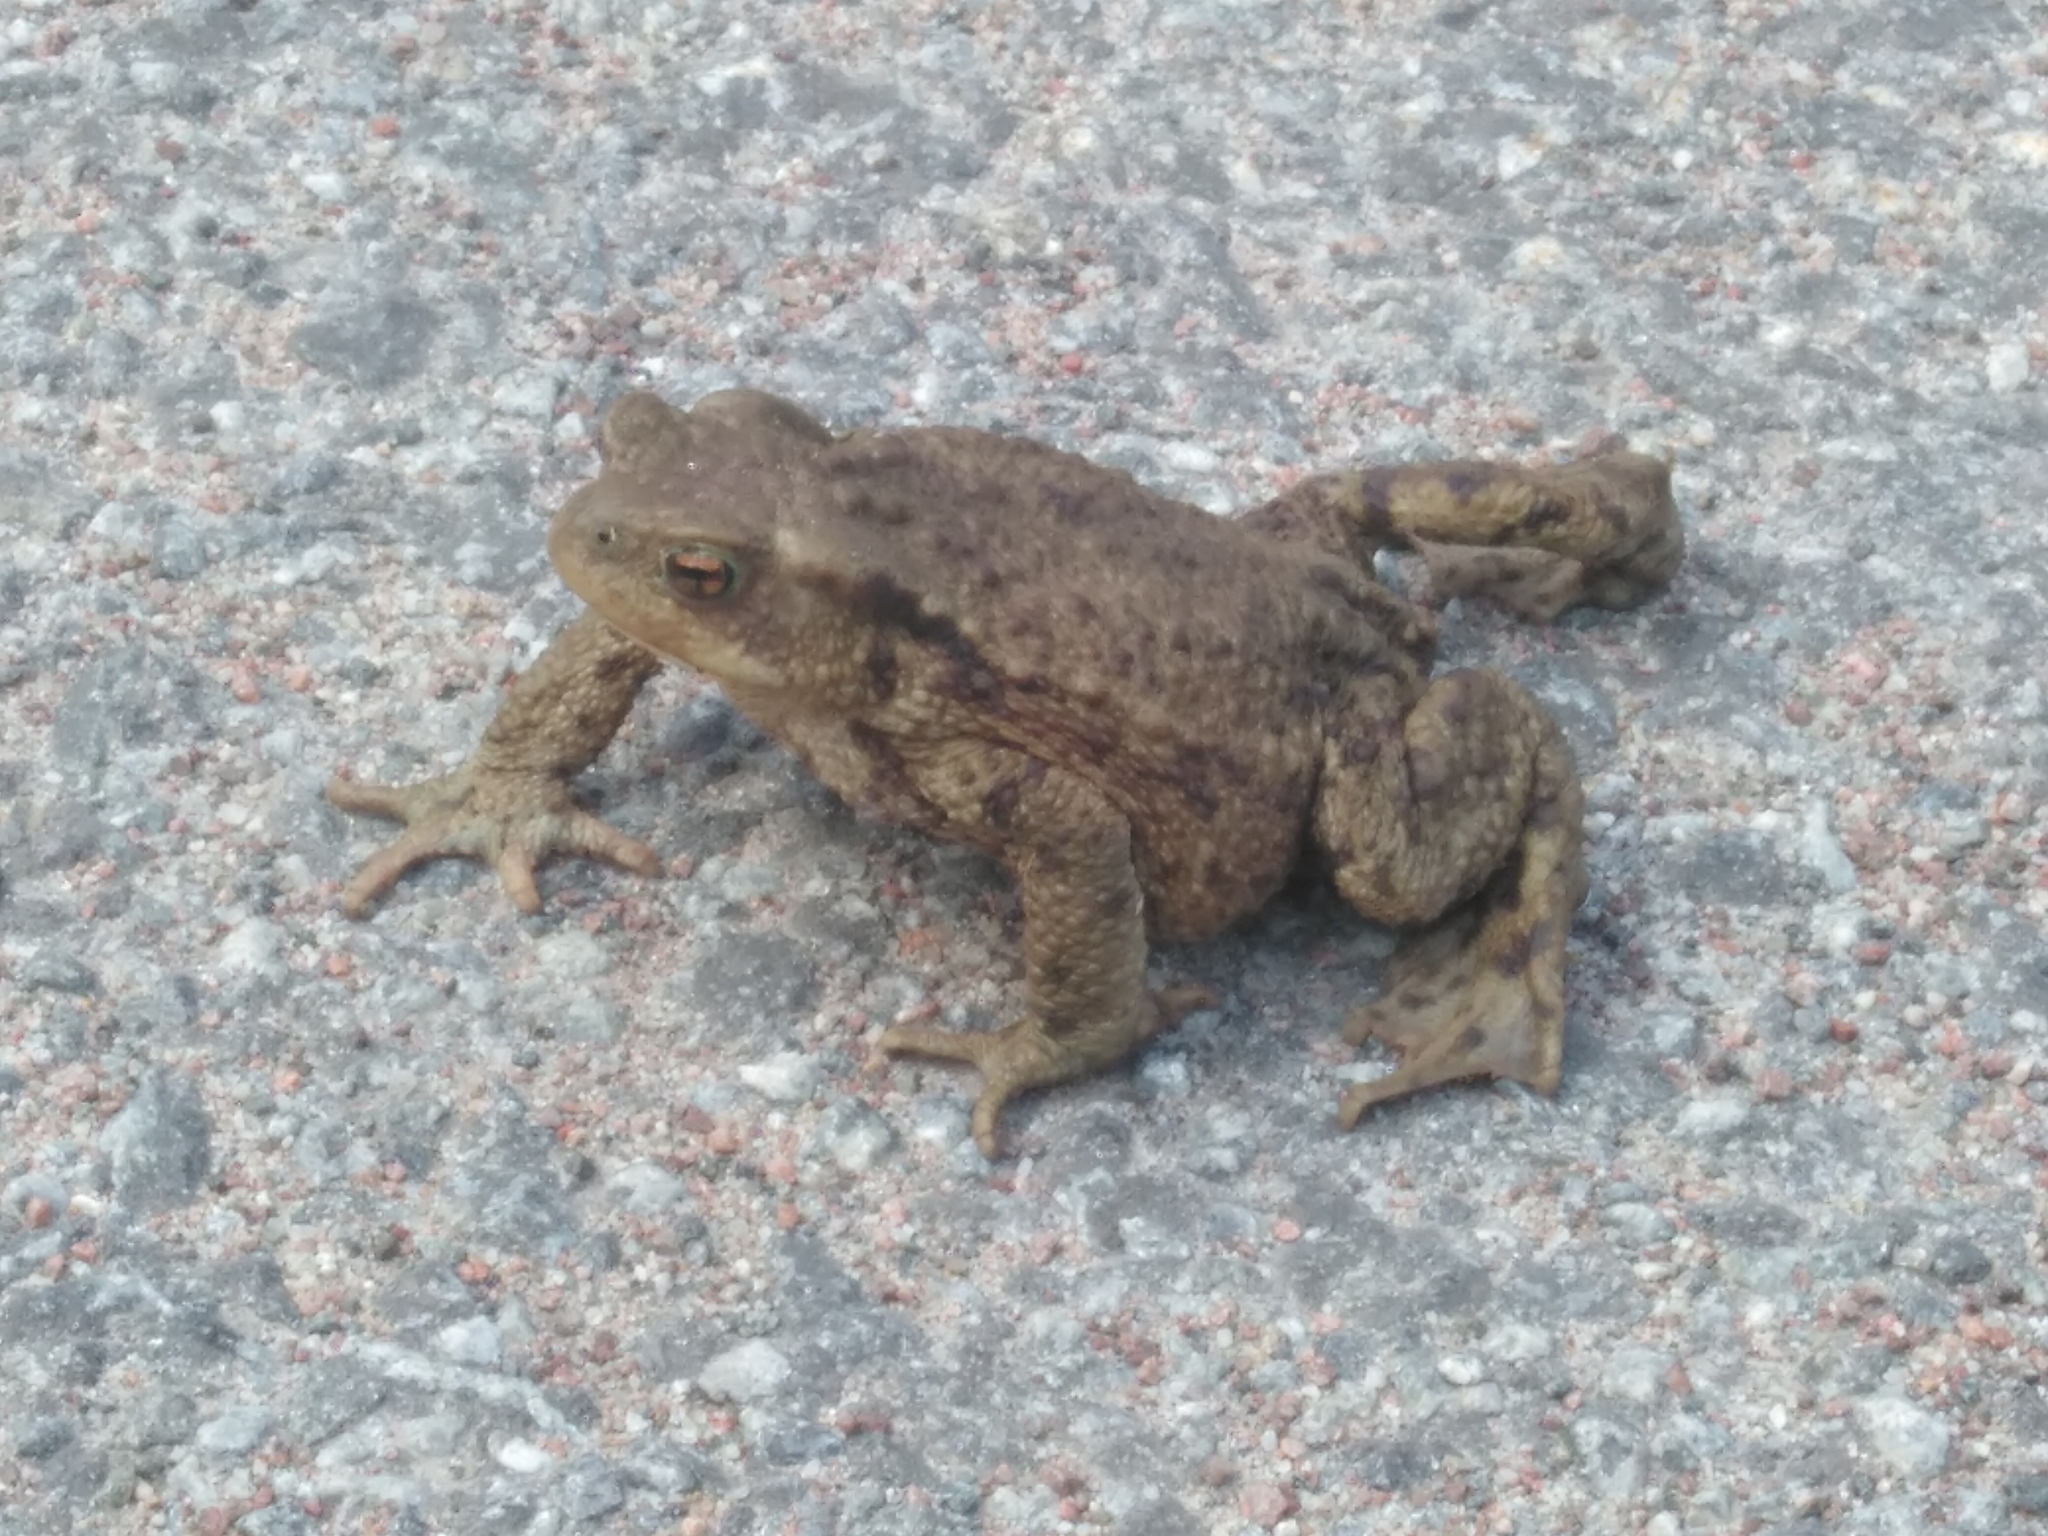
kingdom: Animalia
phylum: Chordata
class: Amphibia
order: Anura
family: Bufonidae
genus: Bufo
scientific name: Bufo bufo
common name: Common toad
